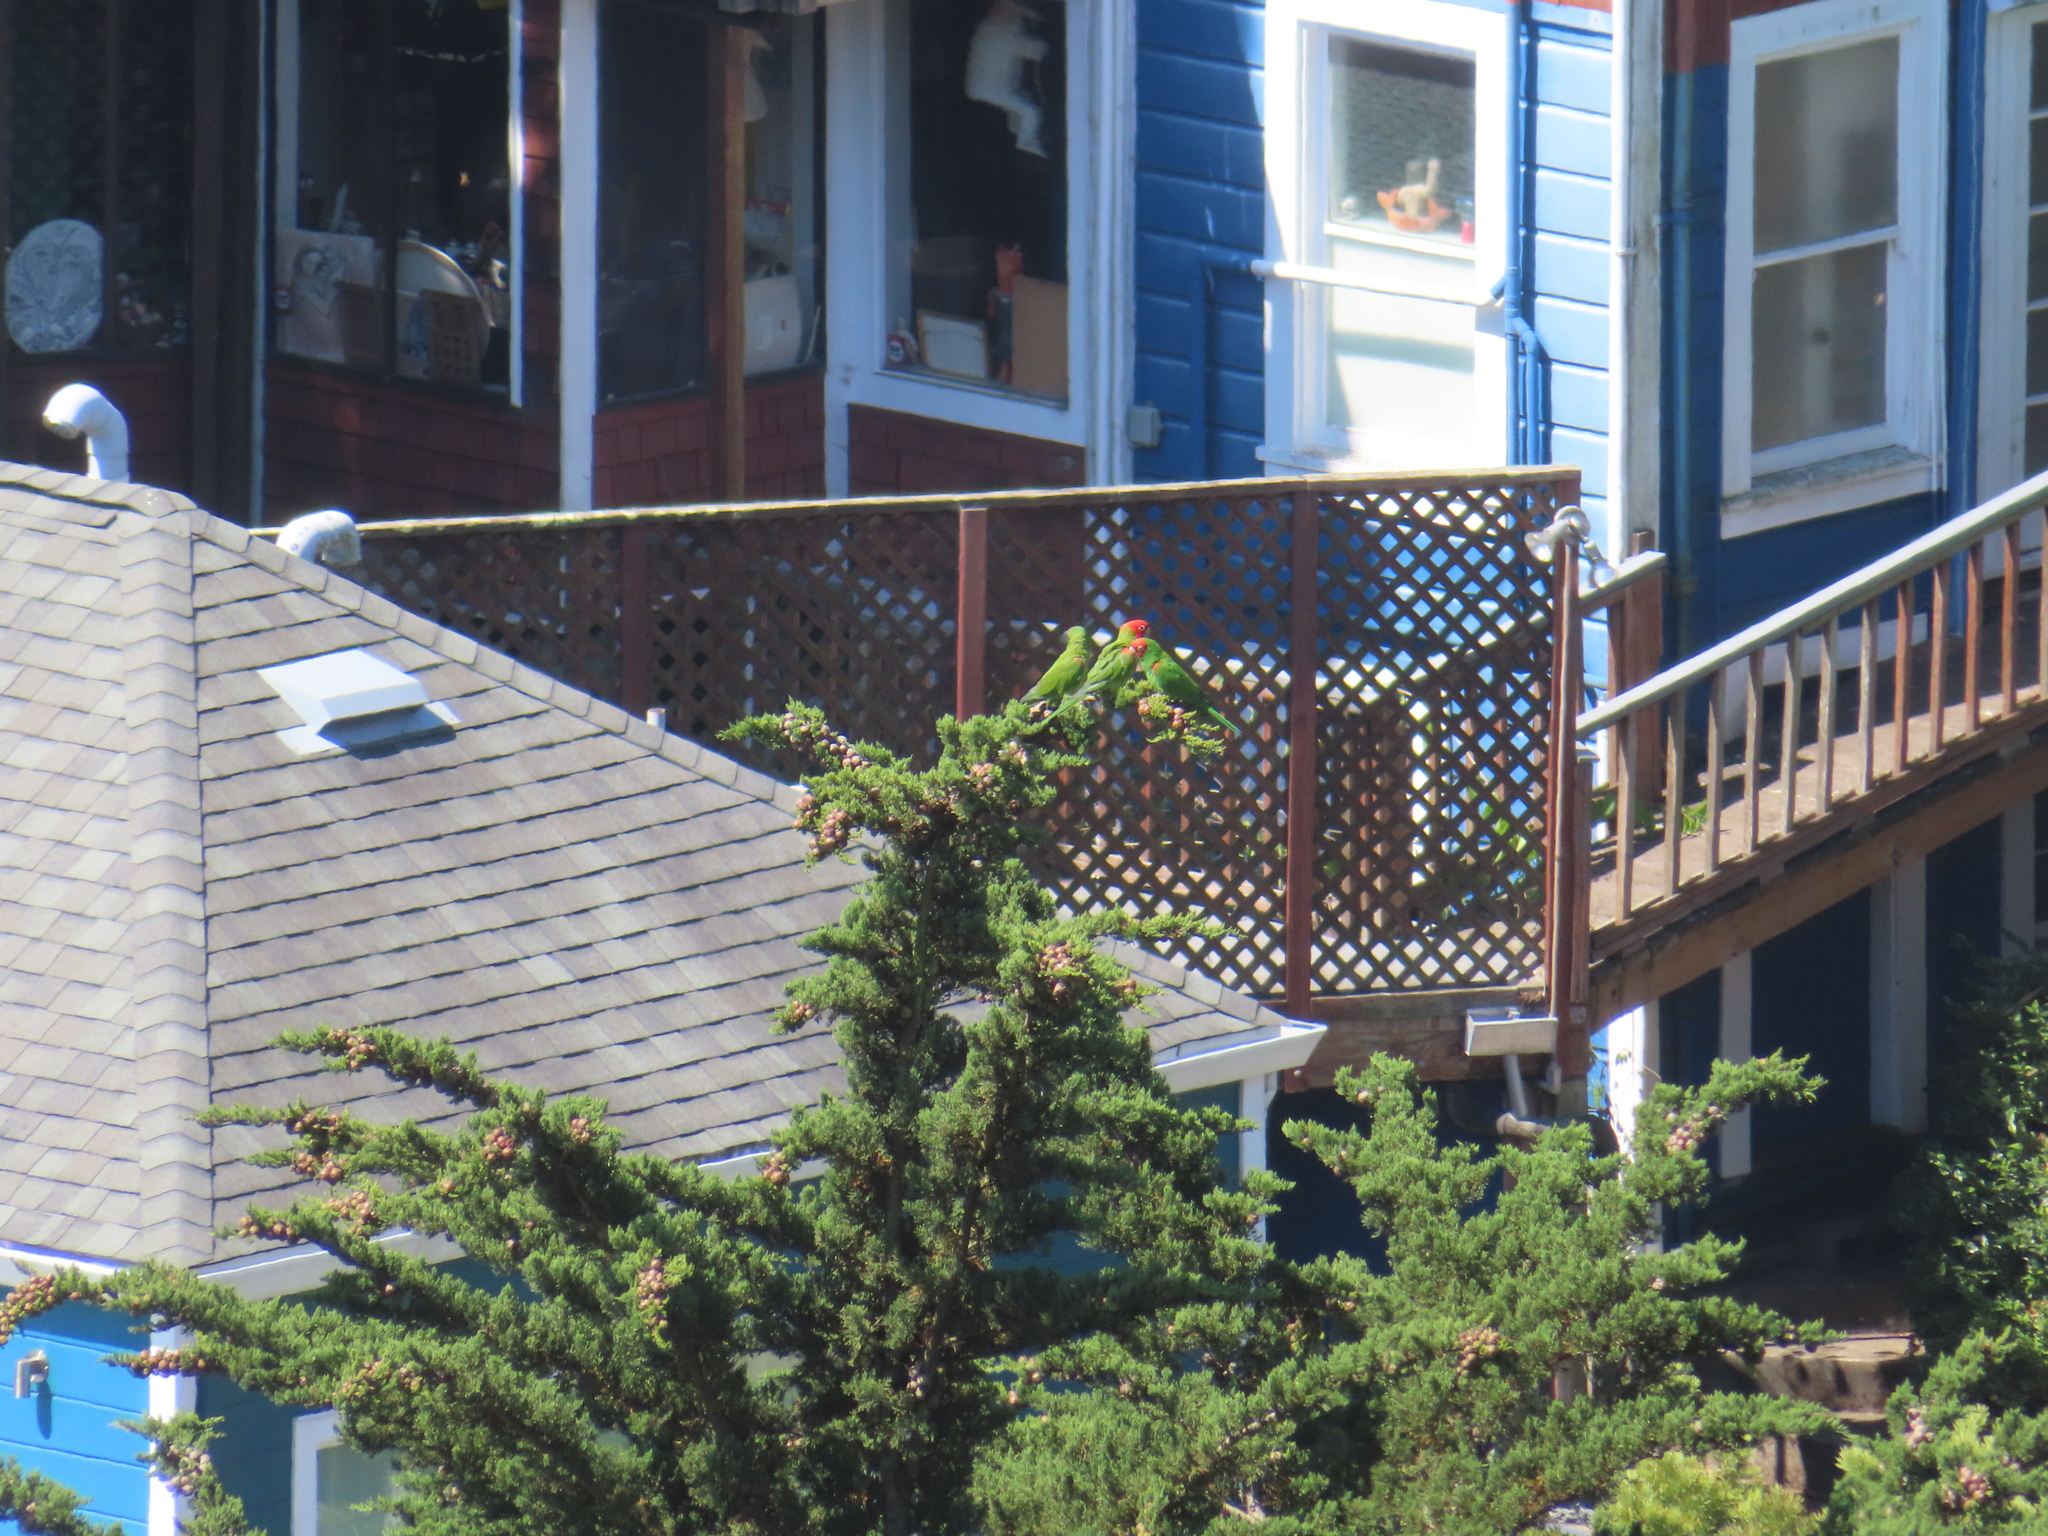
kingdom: Animalia
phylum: Chordata
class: Aves
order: Psittaciformes
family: Psittacidae
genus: Aratinga
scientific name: Aratinga erythrogenys
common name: Red-masked parakeet
